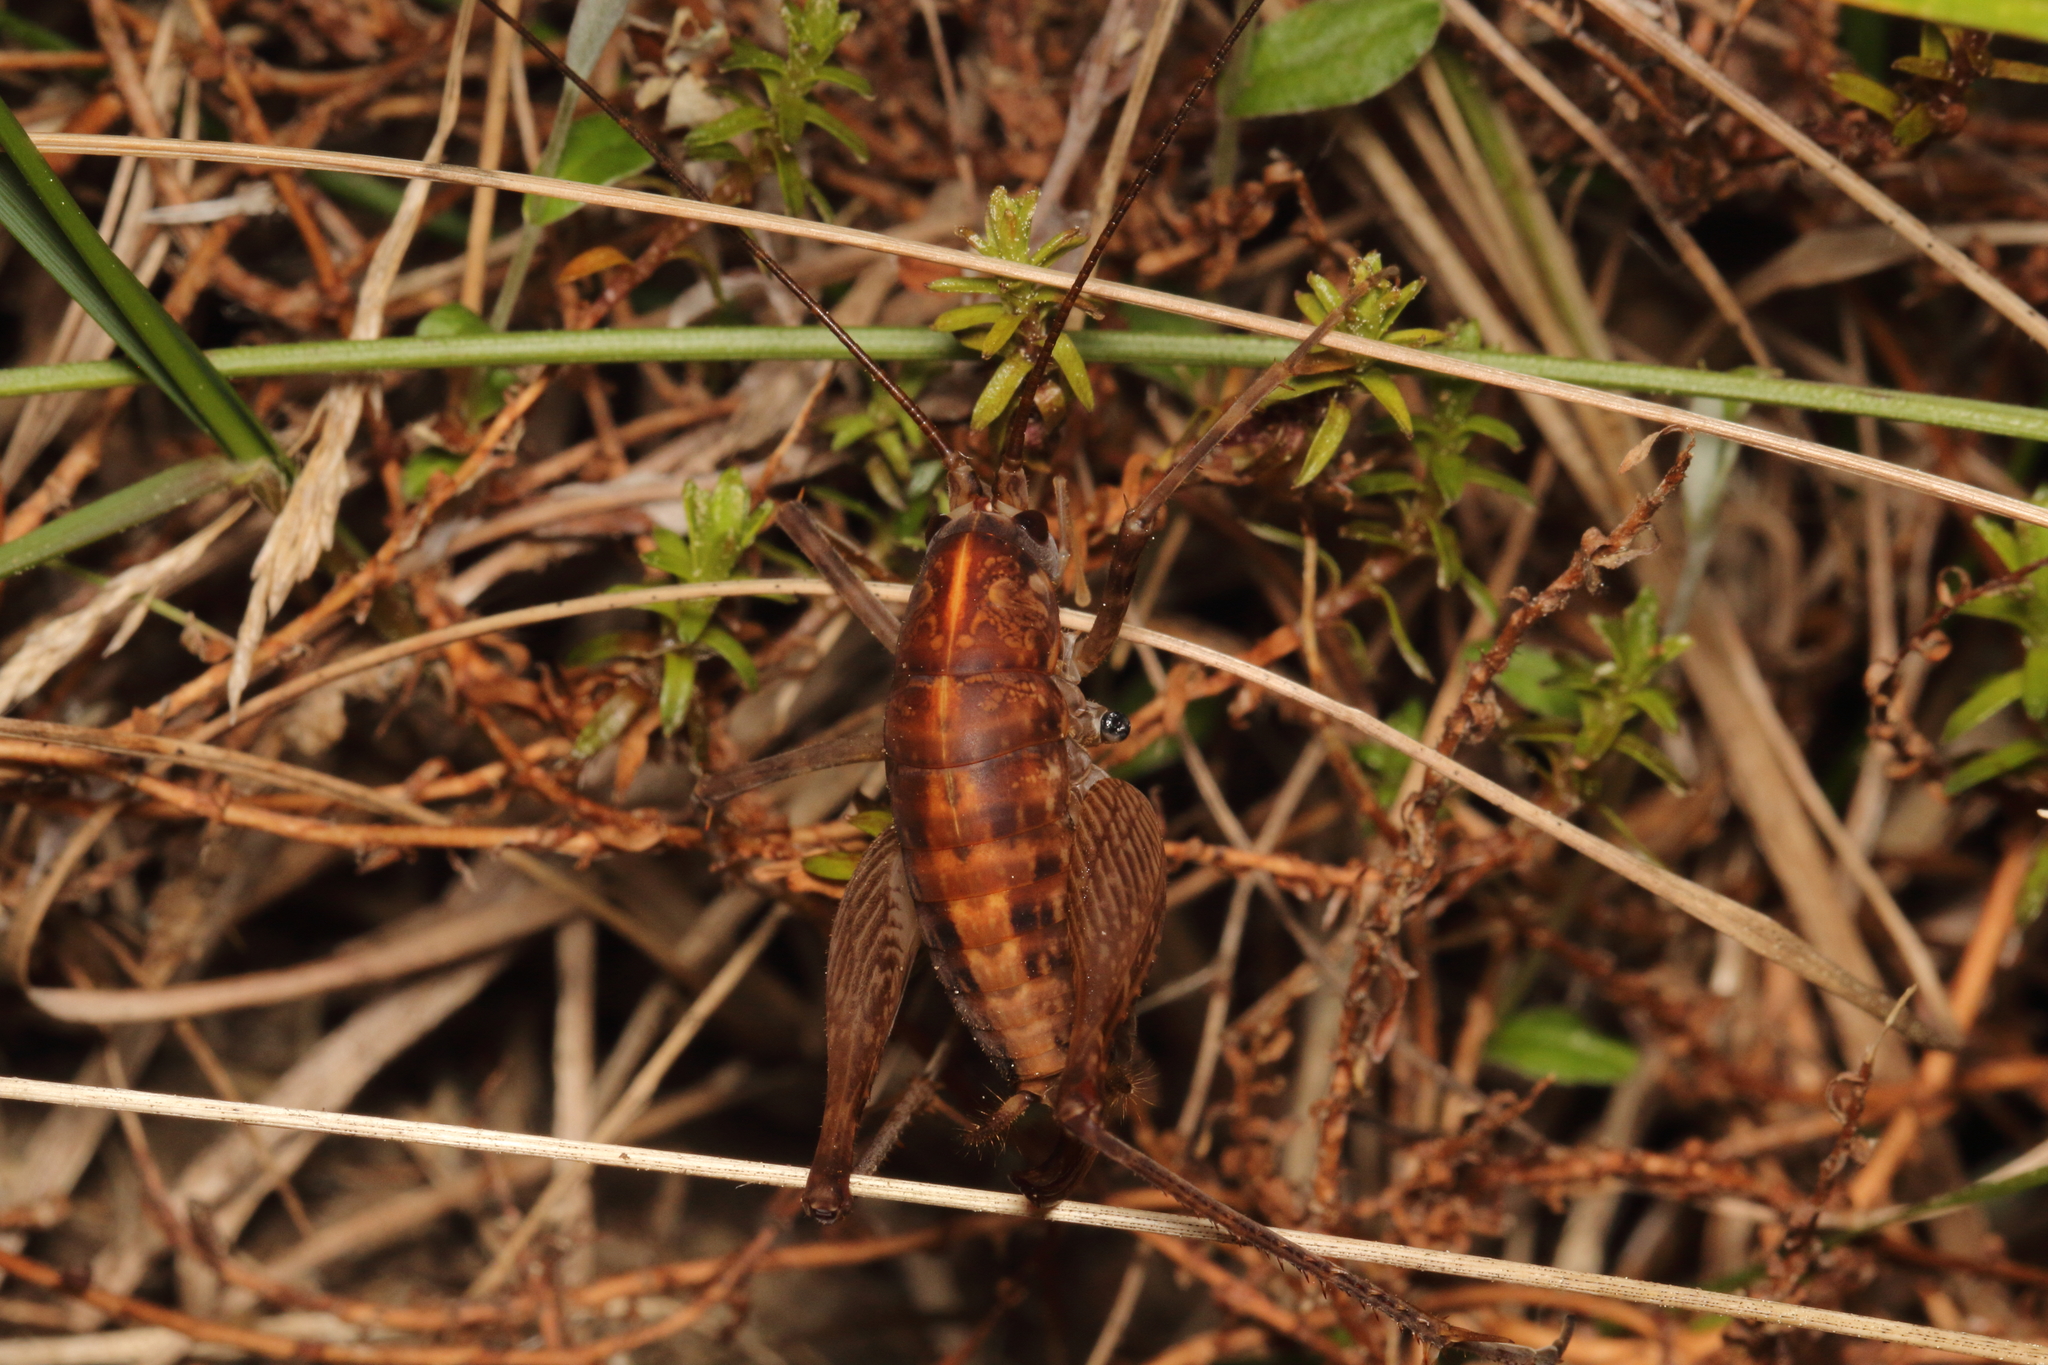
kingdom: Animalia
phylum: Arthropoda
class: Insecta
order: Orthoptera
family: Rhaphidophoridae
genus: Pleioplectron
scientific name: Pleioplectron simplex
